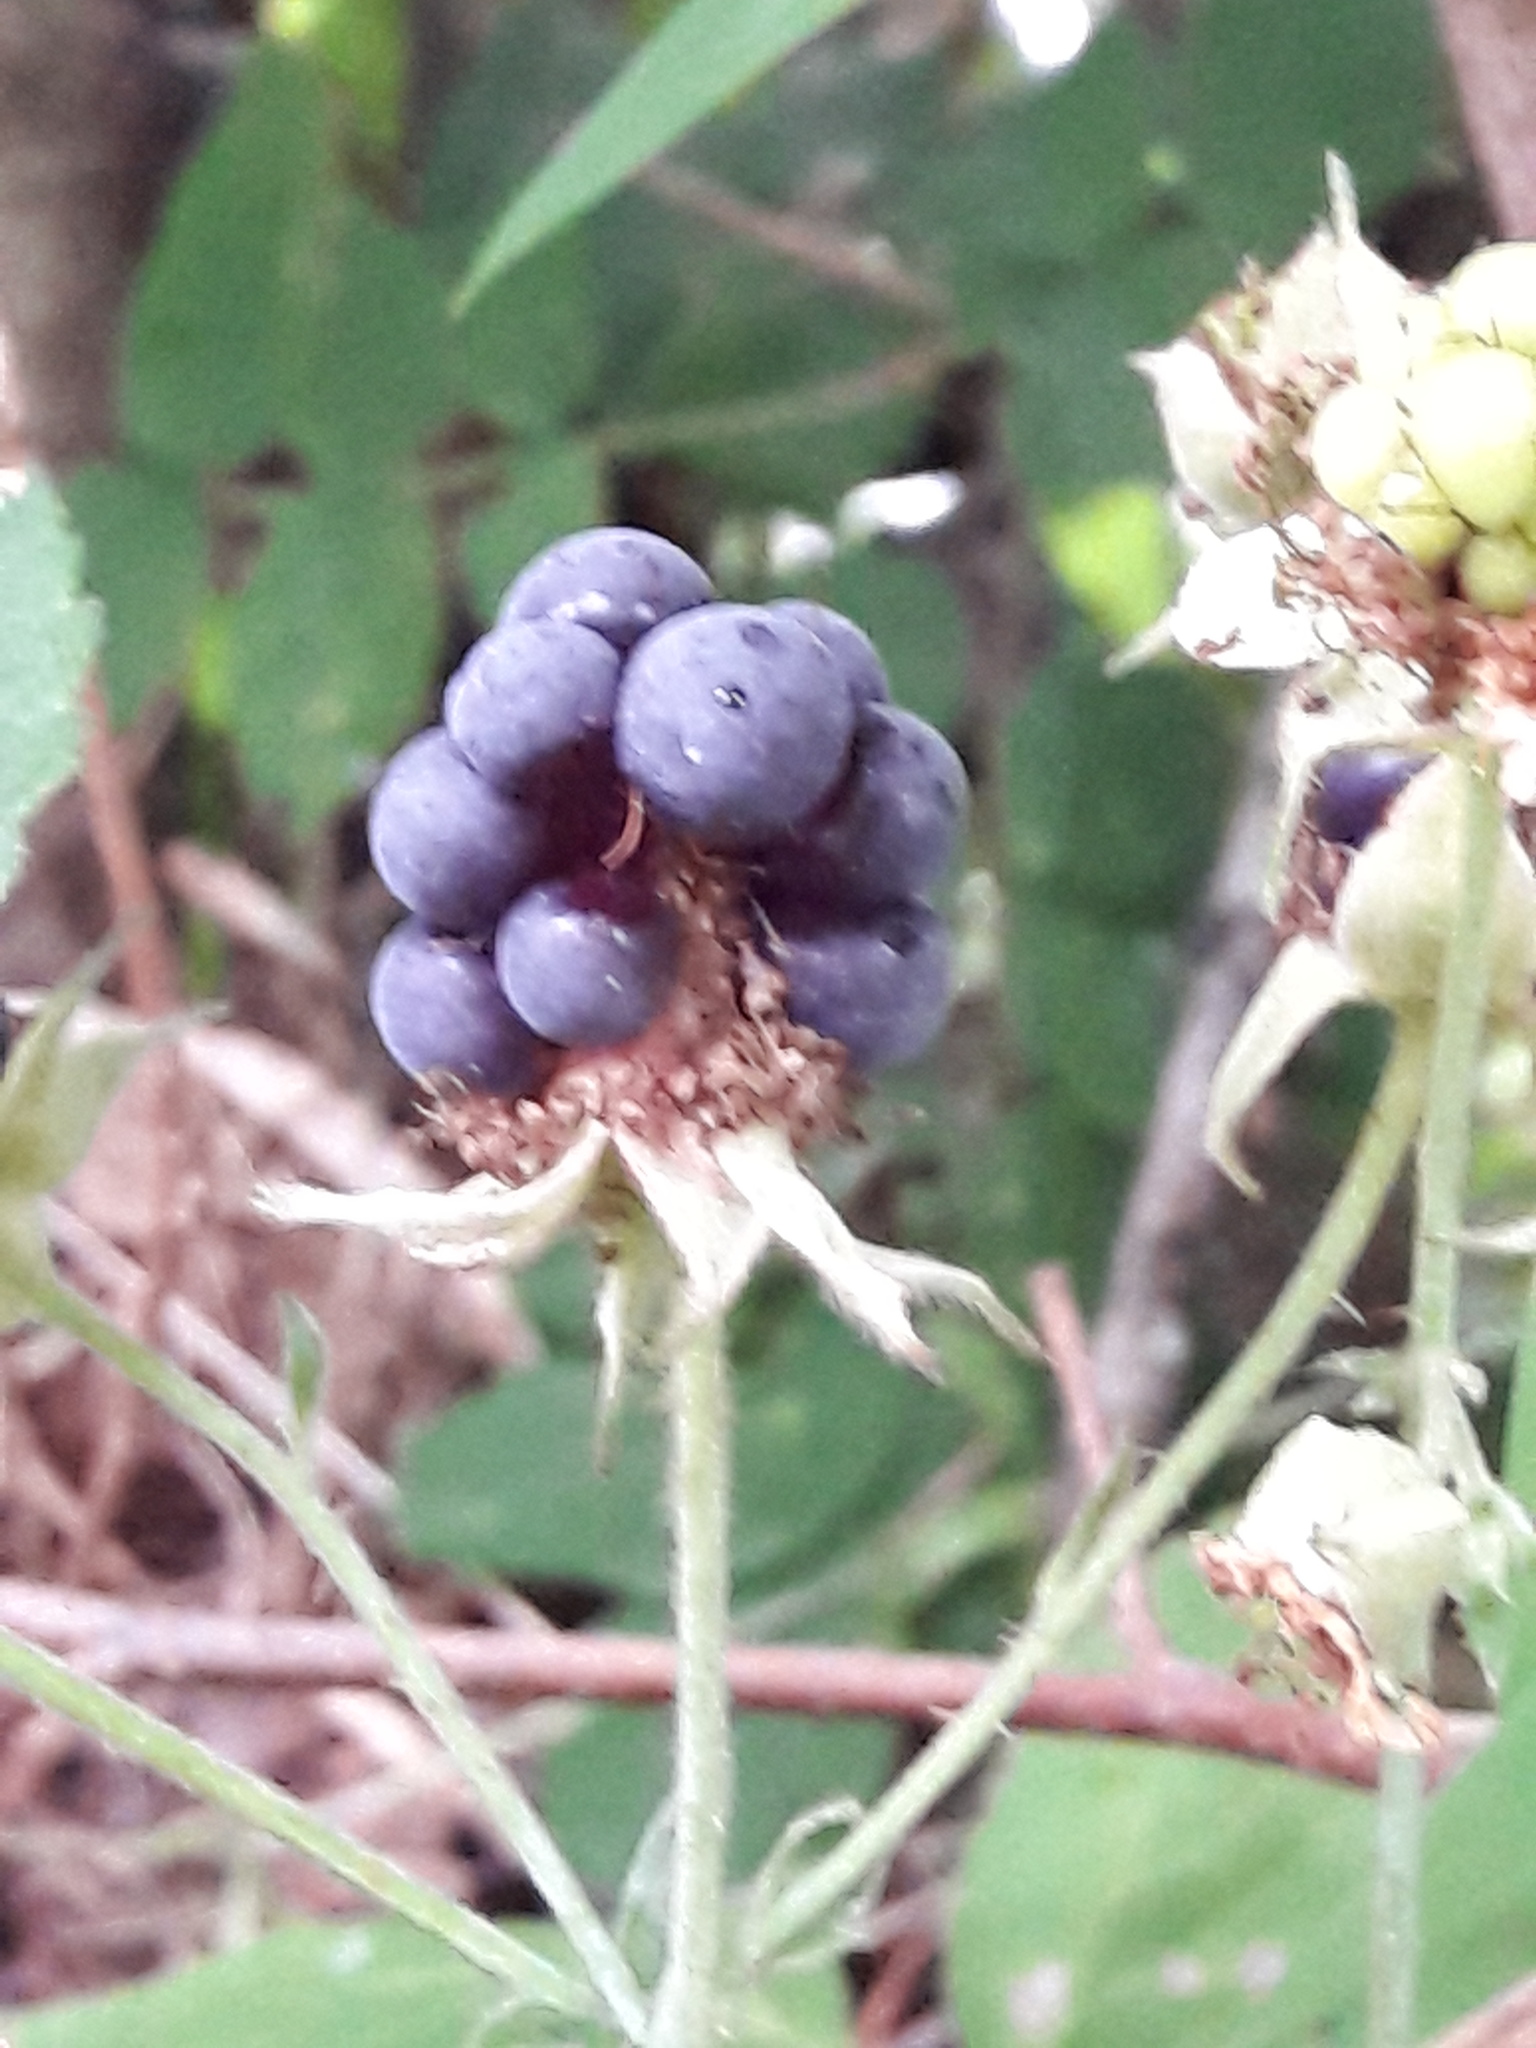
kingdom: Plantae
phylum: Tracheophyta
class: Magnoliopsida
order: Rosales
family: Rosaceae
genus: Rubus
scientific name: Rubus caesius
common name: Dewberry
